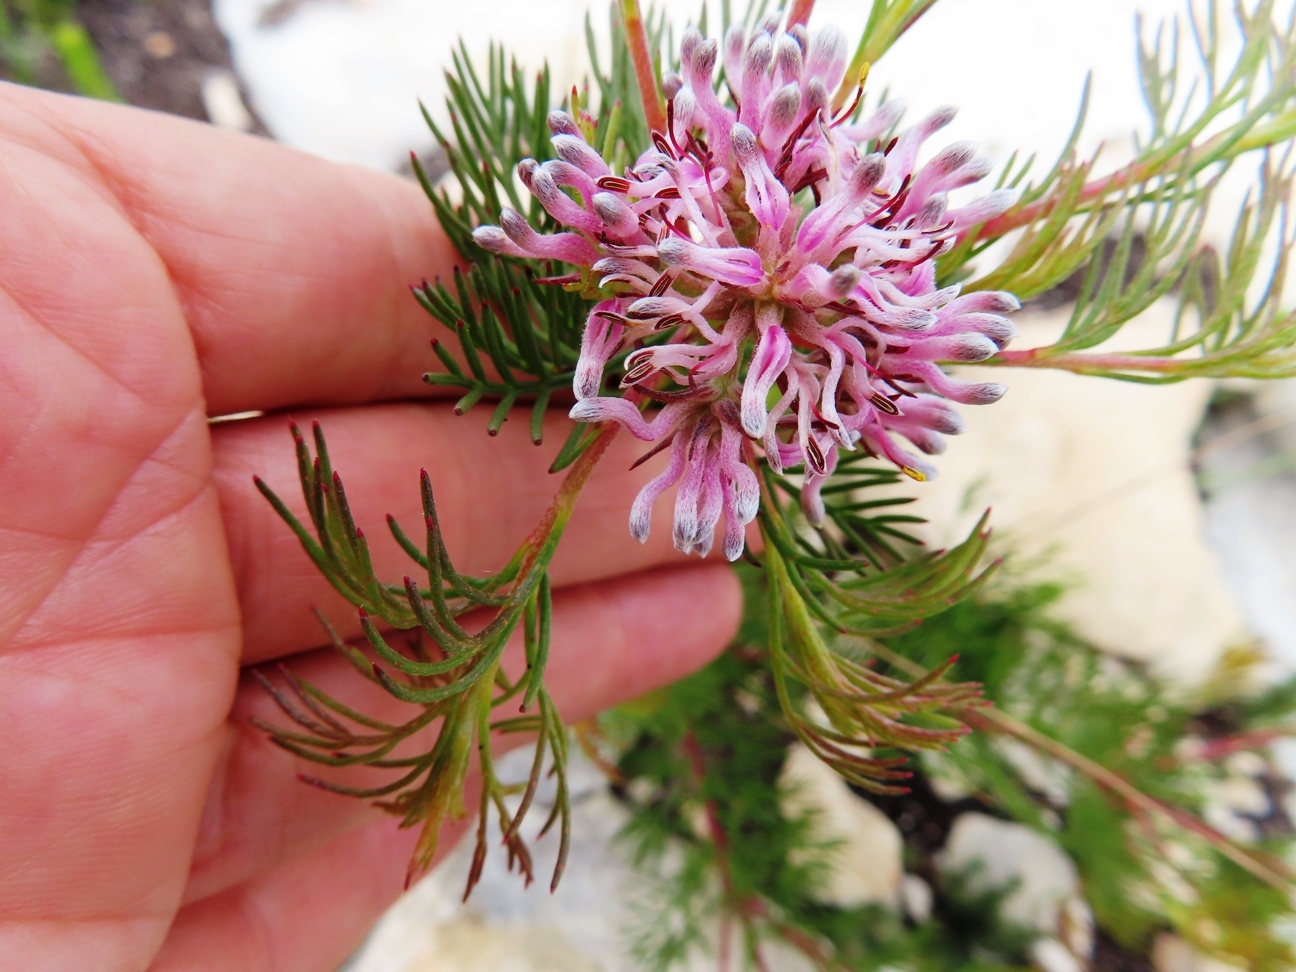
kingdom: Plantae
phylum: Tracheophyta
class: Magnoliopsida
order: Proteales
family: Proteaceae
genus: Serruria
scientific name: Serruria bolusii
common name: Agulhas spiderhead
